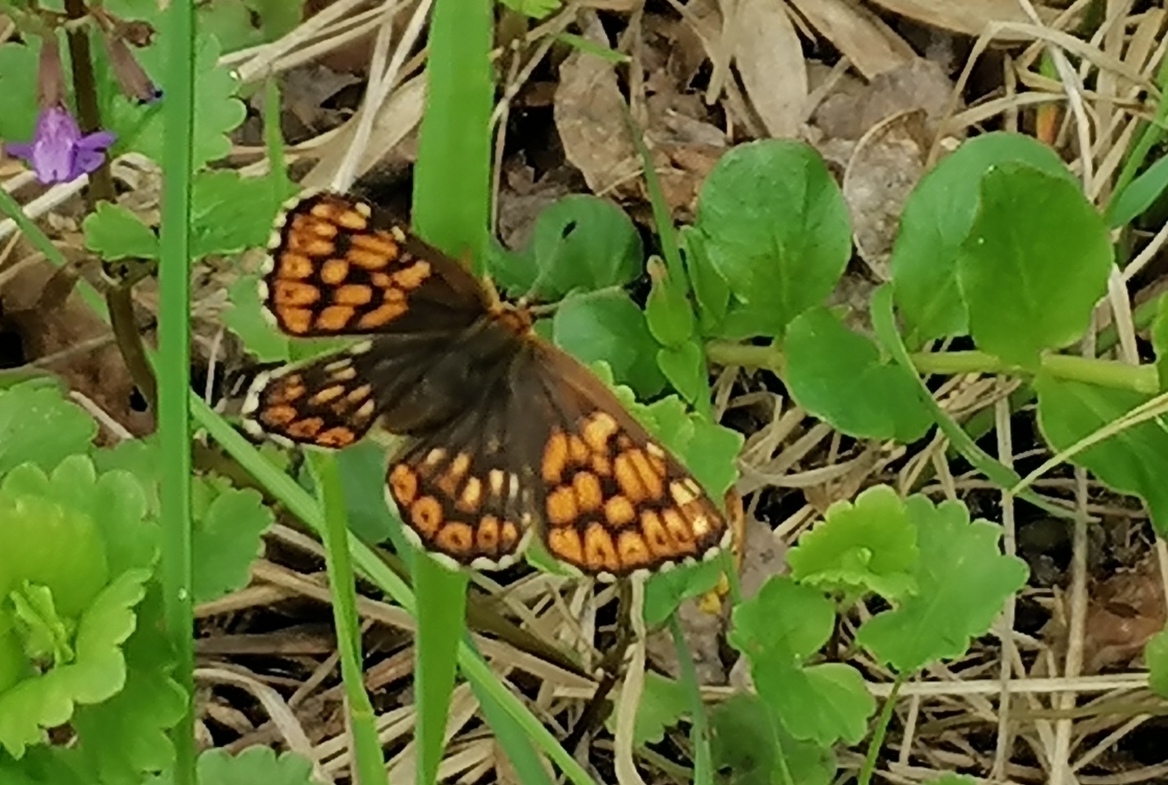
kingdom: Animalia
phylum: Arthropoda
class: Insecta
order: Lepidoptera
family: Riodinidae
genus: Hamearis
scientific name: Hamearis lucina
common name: Duke of burgundy fritillary
